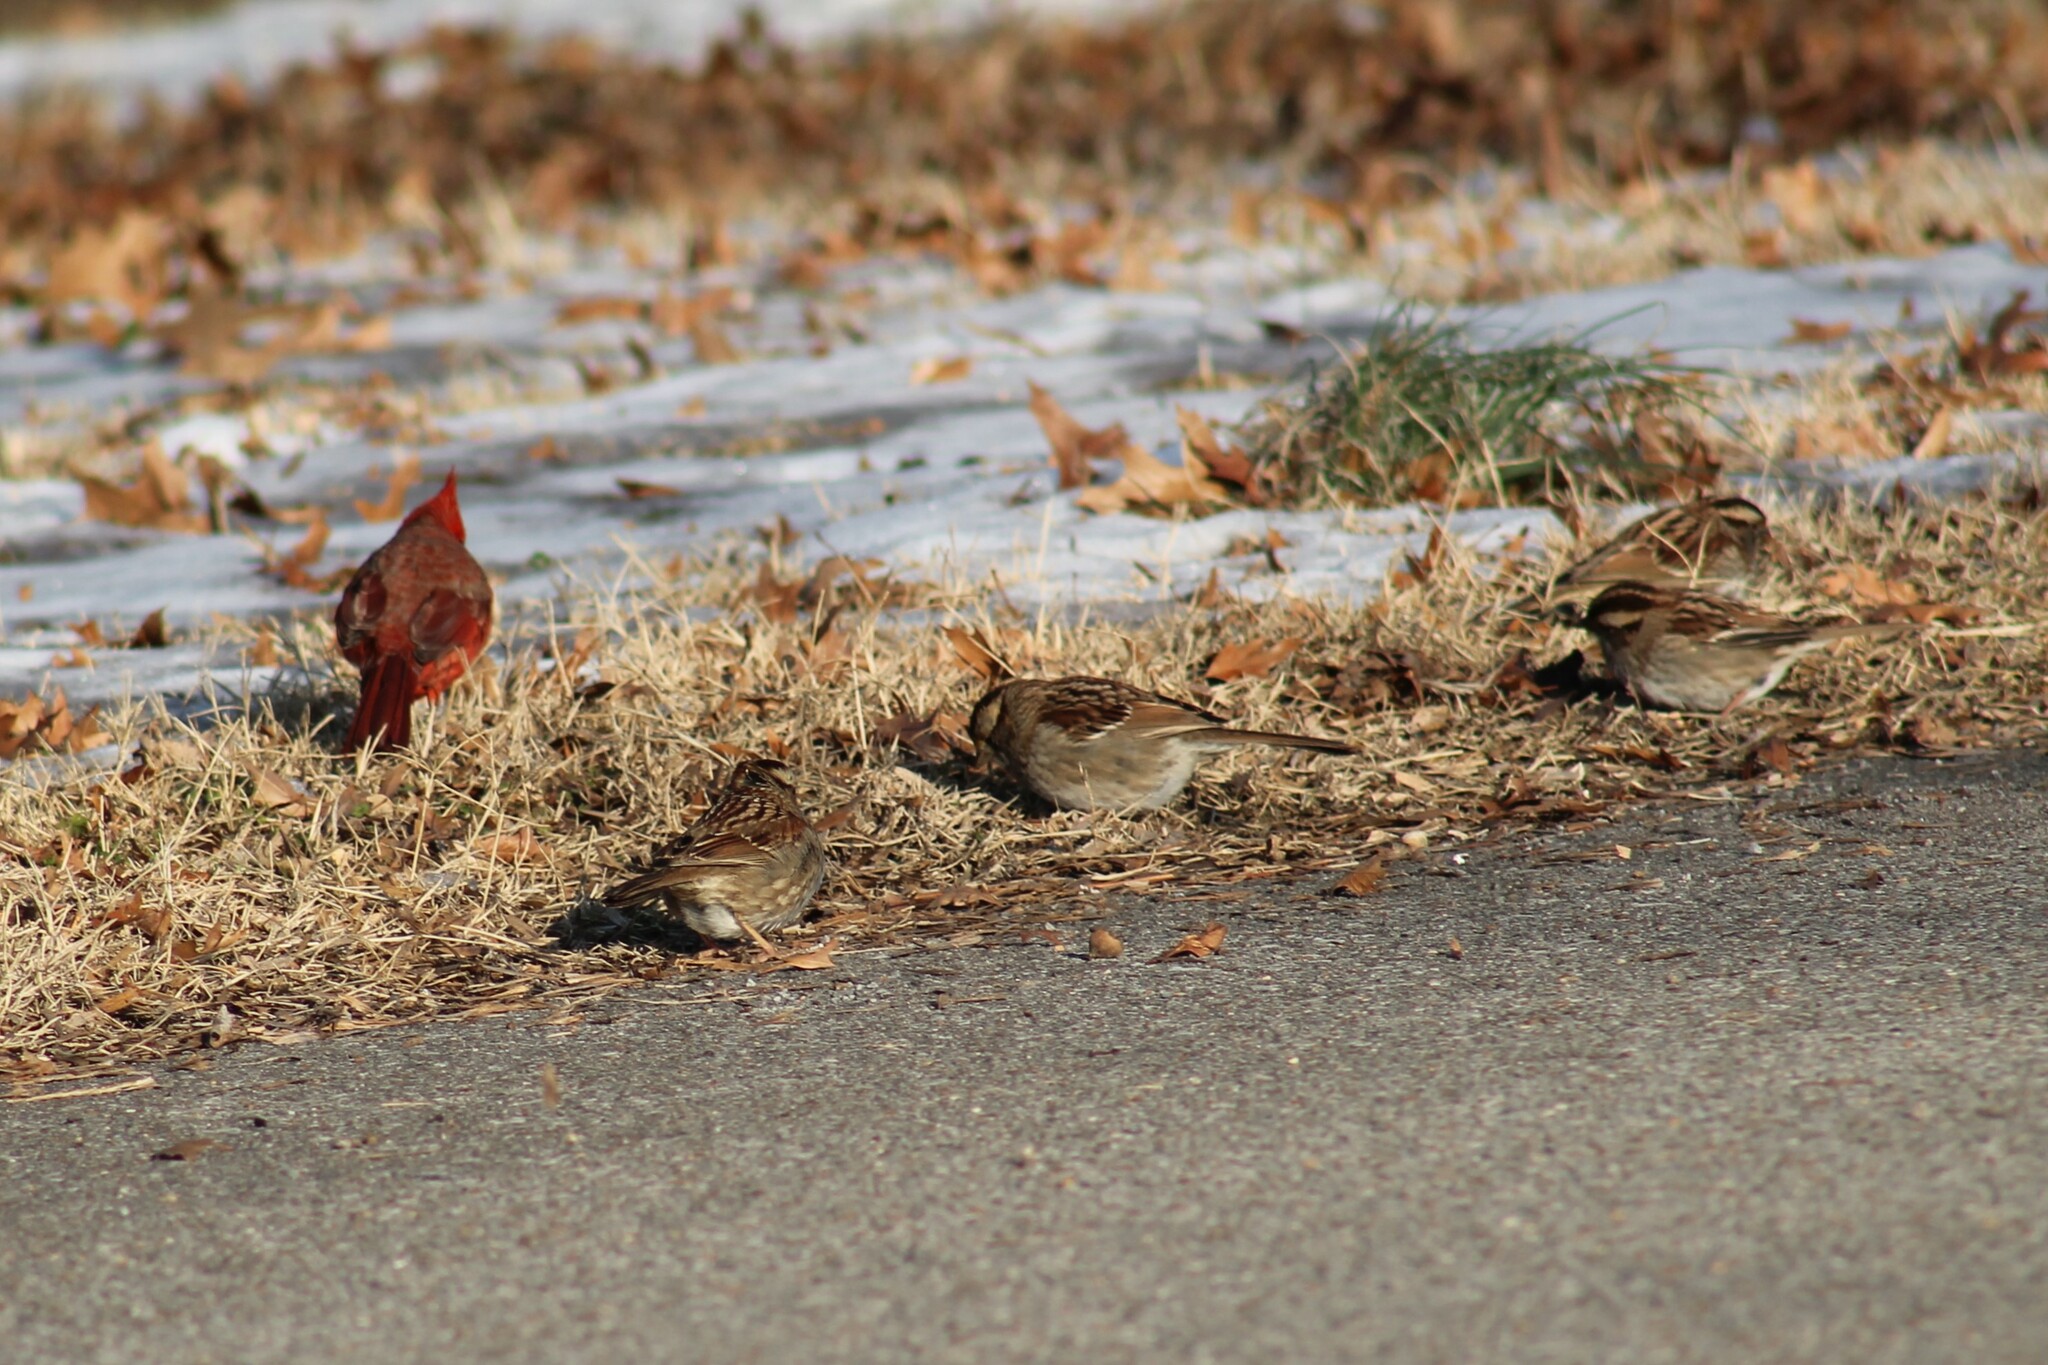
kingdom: Animalia
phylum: Chordata
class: Aves
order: Passeriformes
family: Passerellidae
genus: Zonotrichia
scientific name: Zonotrichia albicollis
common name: White-throated sparrow
